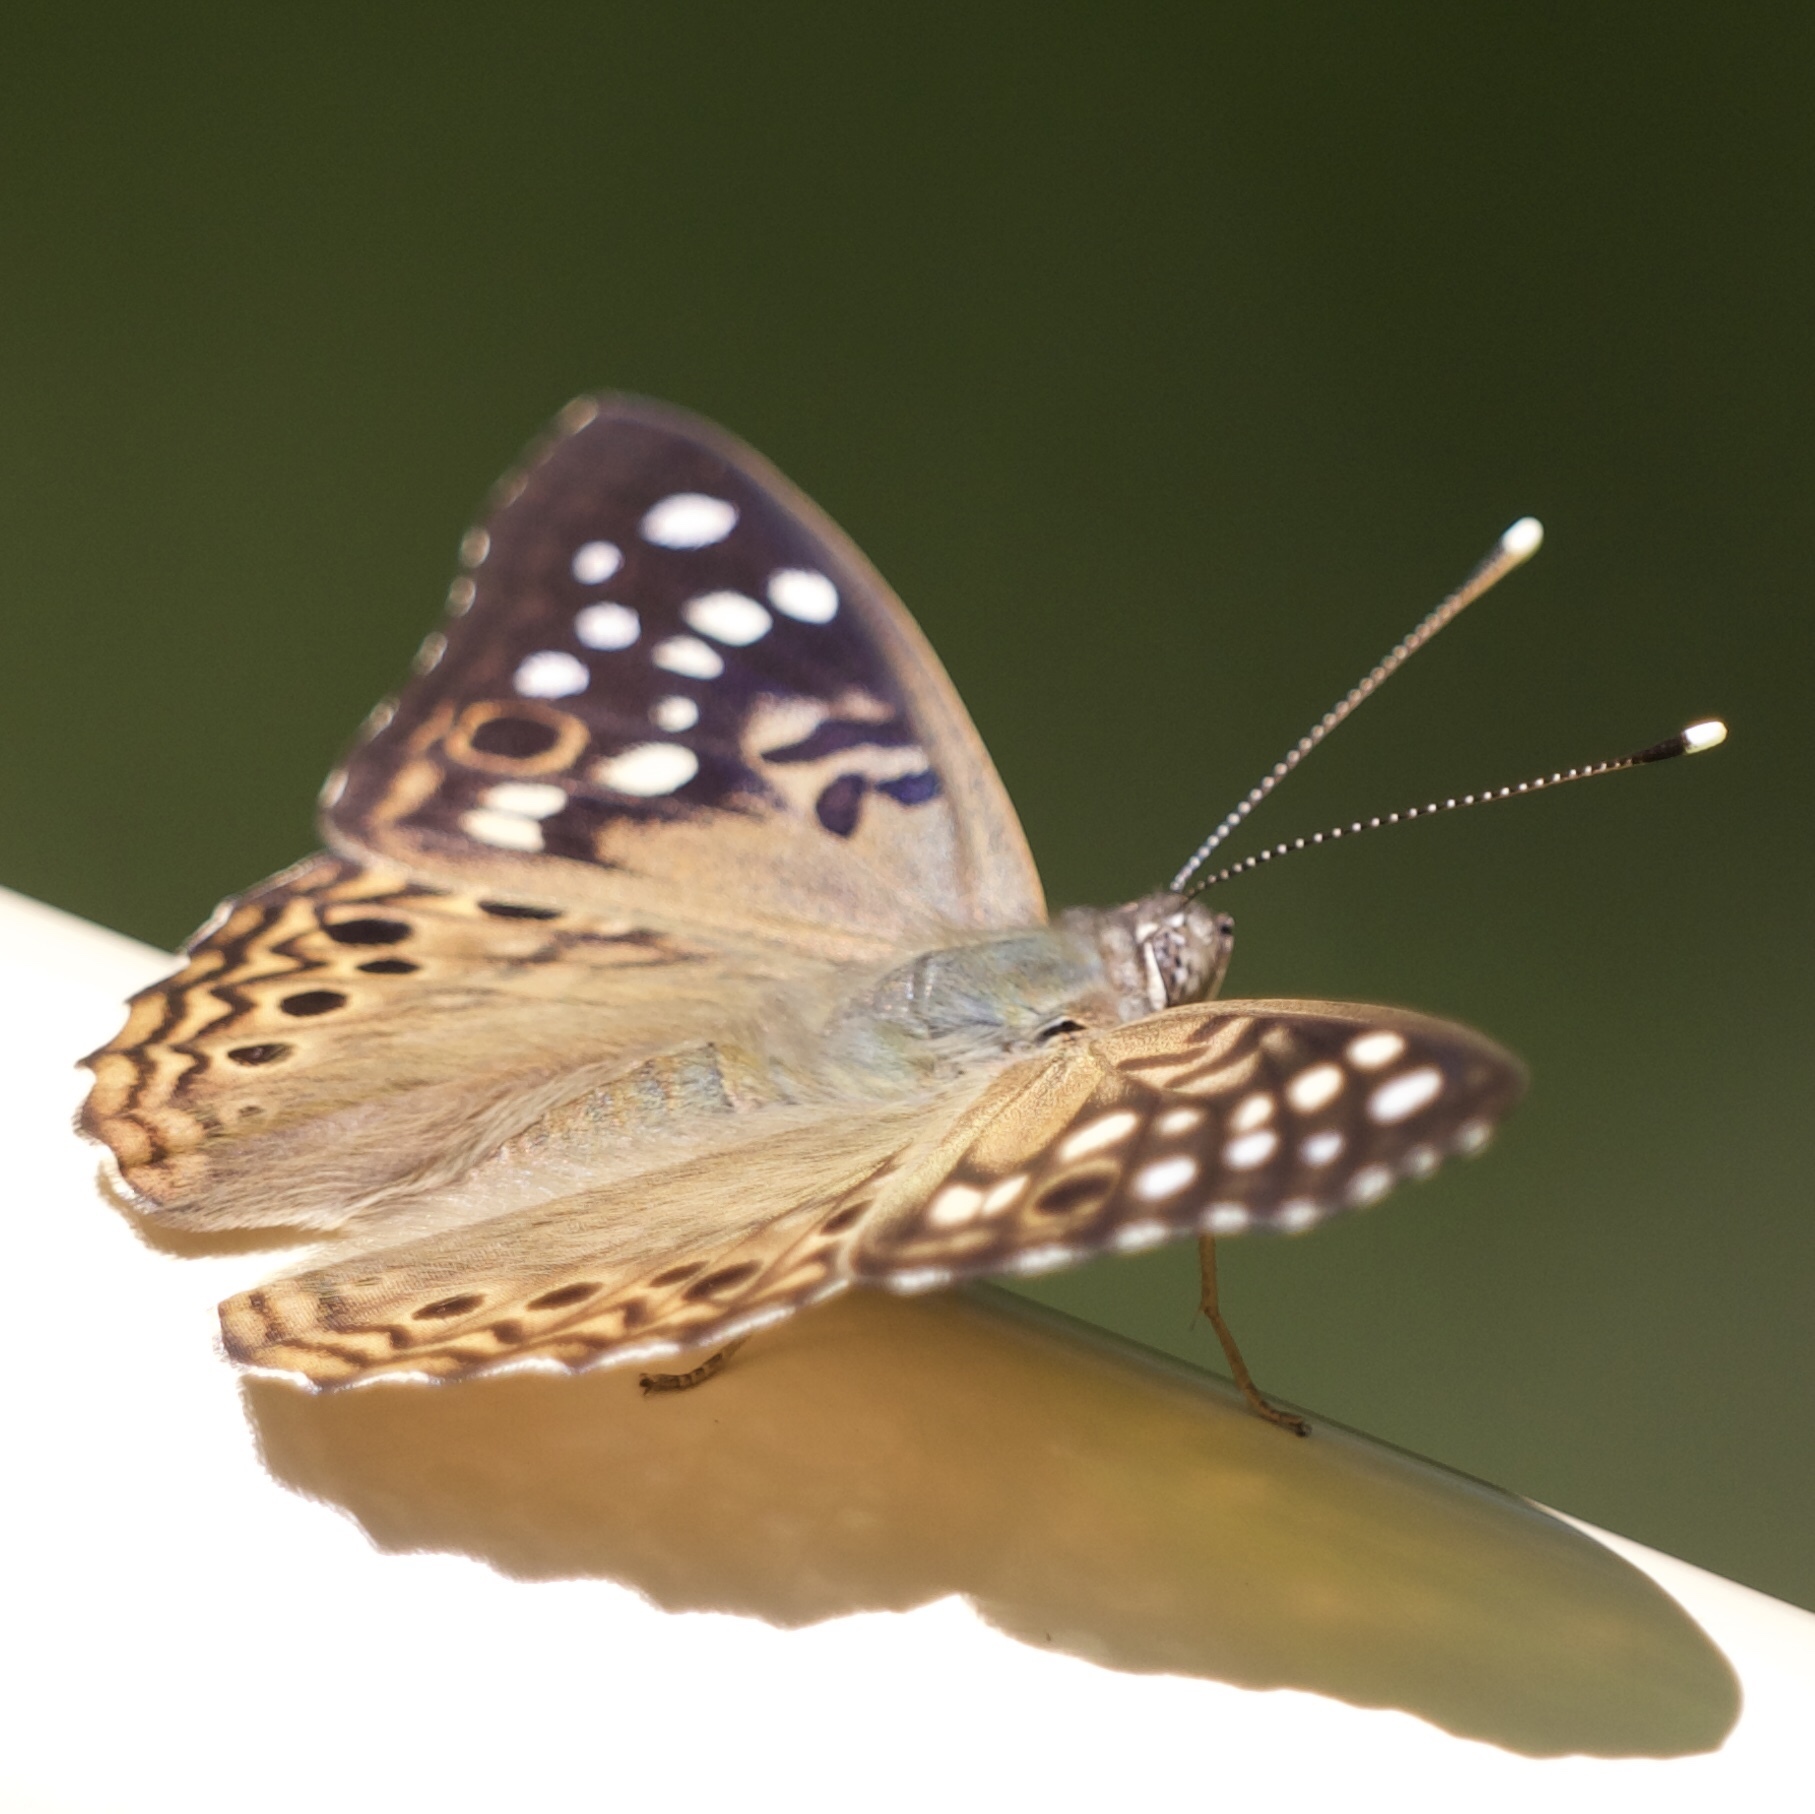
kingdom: Animalia
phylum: Arthropoda
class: Insecta
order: Lepidoptera
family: Nymphalidae
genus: Asterocampa
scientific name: Asterocampa celtis
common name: Hackberry emperor
